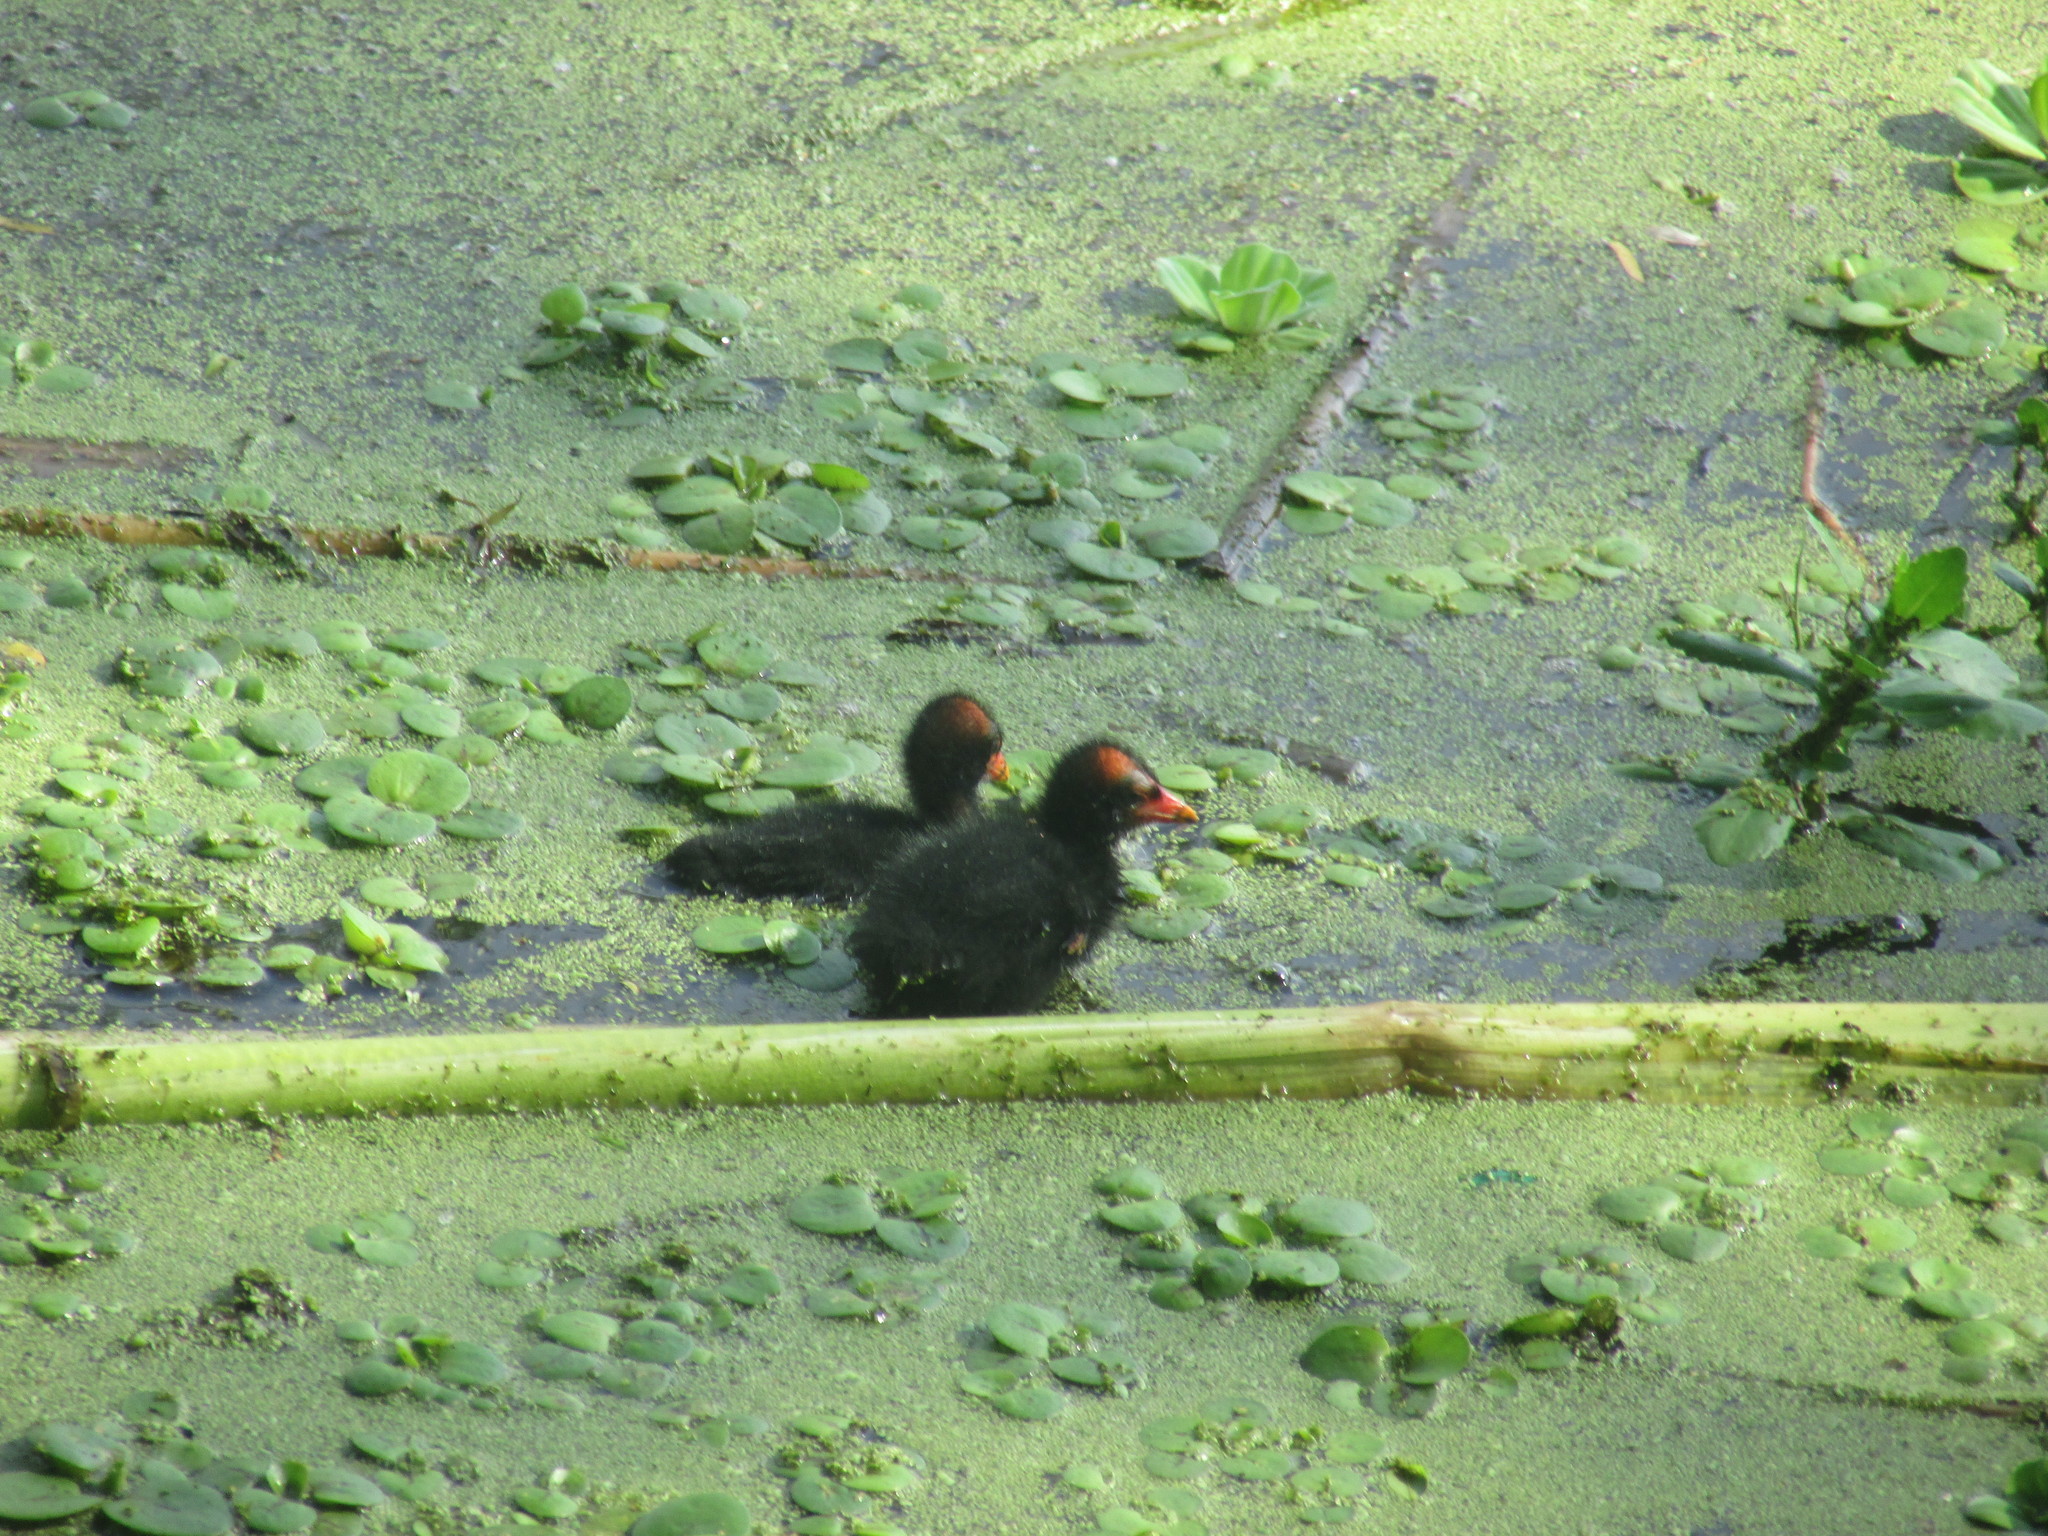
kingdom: Animalia
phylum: Chordata
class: Aves
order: Gruiformes
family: Rallidae
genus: Gallinula
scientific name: Gallinula chloropus
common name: Common moorhen
